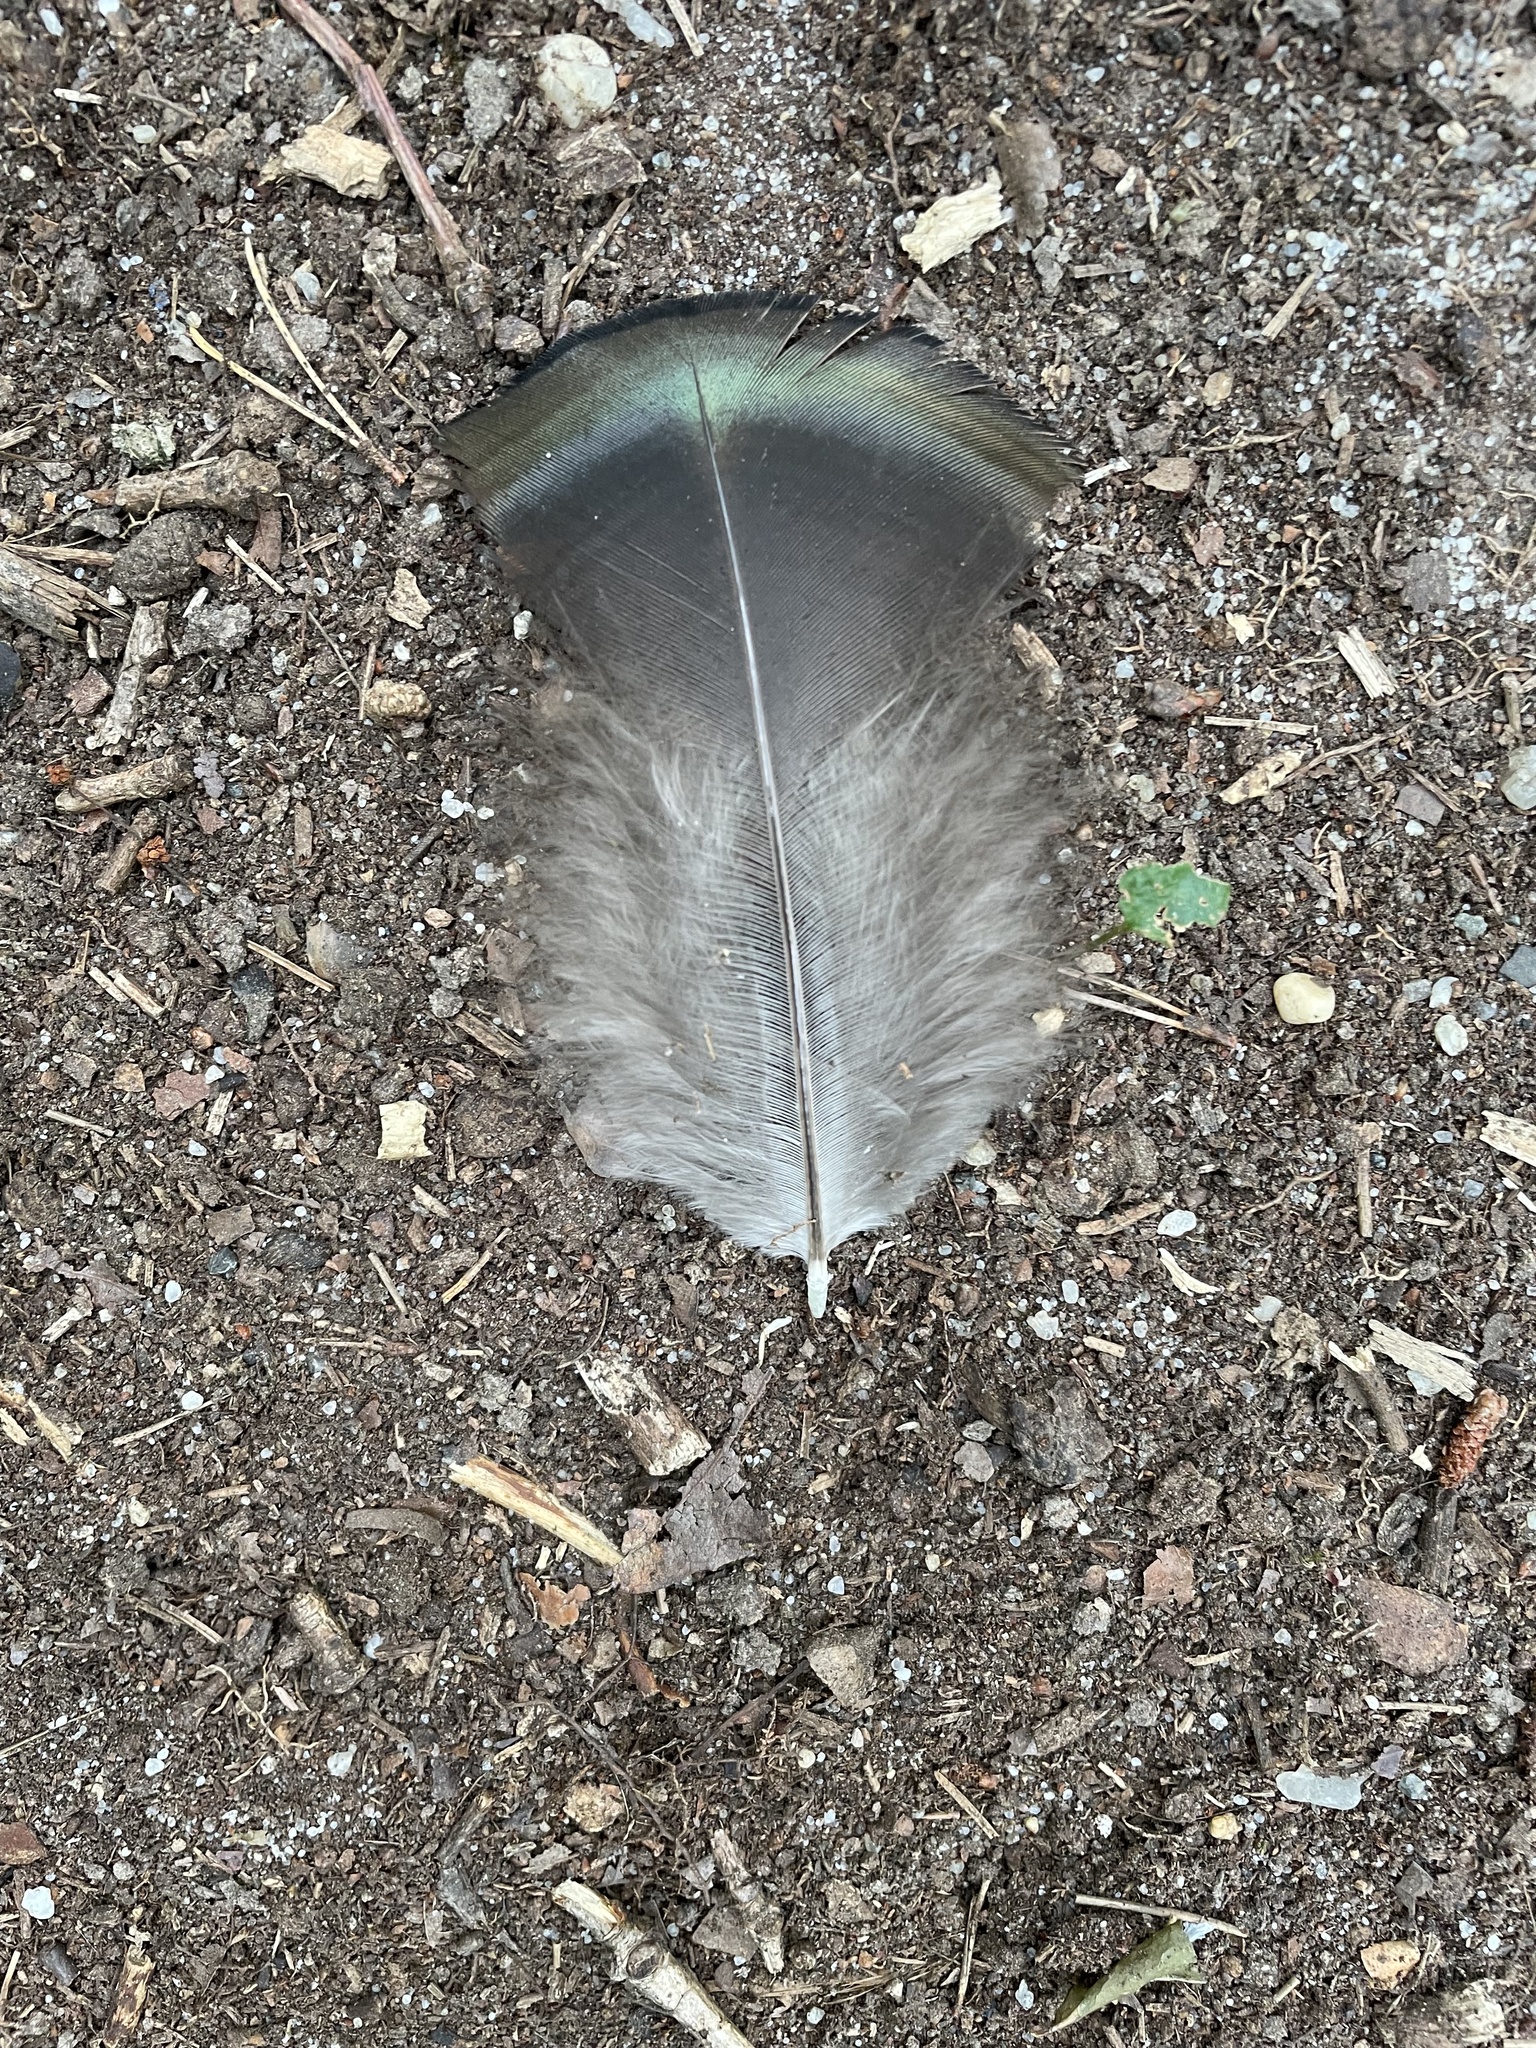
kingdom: Animalia
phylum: Chordata
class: Aves
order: Galliformes
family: Phasianidae
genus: Meleagris
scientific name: Meleagris gallopavo
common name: Wild turkey
